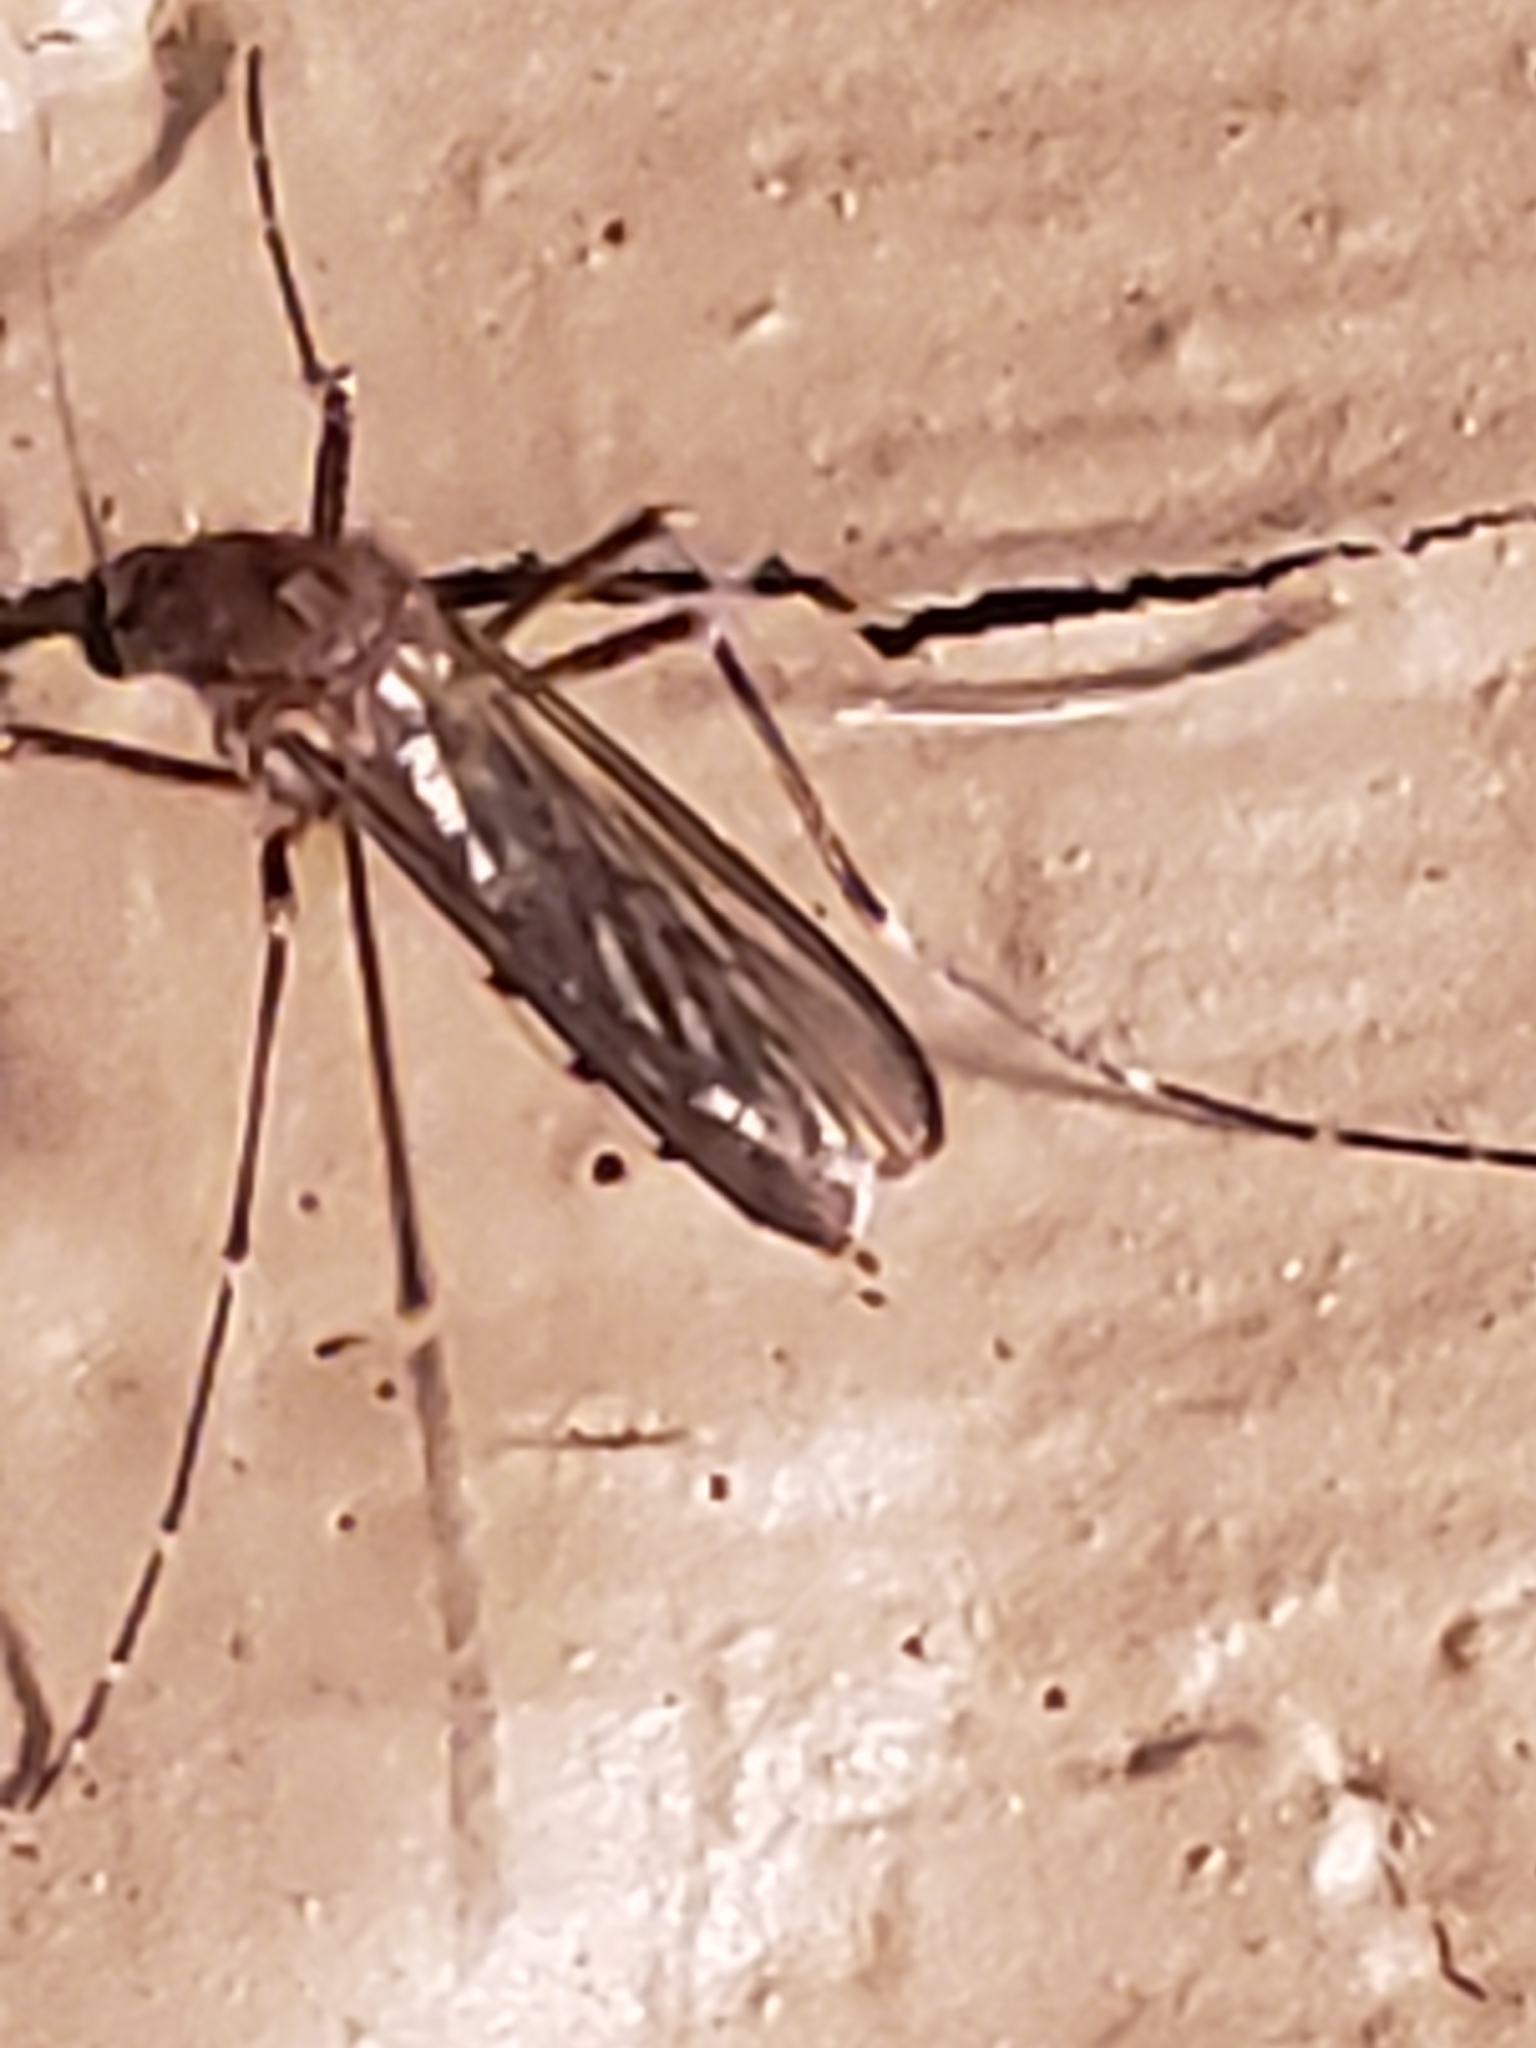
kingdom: Animalia
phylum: Arthropoda
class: Insecta
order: Diptera
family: Culicidae
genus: Aedes
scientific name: Aedes vexans
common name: Inland floodwater mosquito
